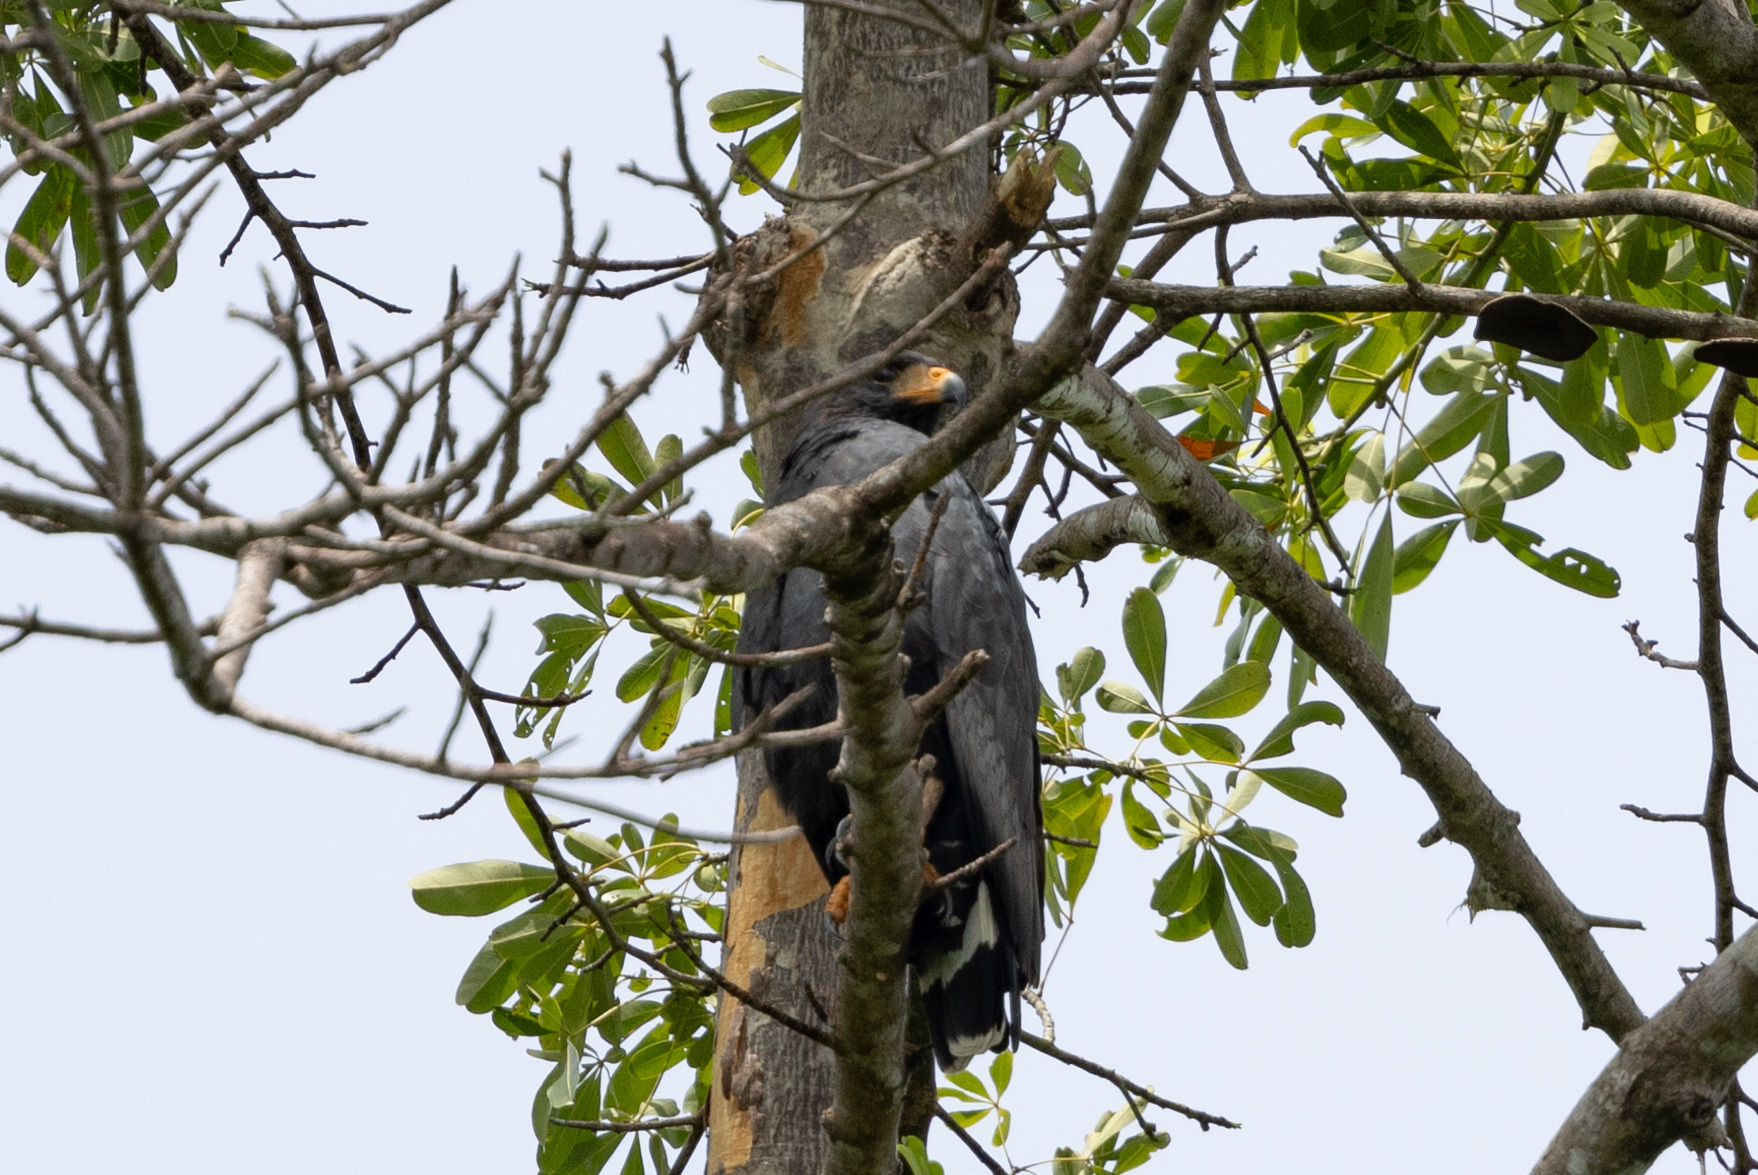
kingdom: Animalia
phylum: Chordata
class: Aves
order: Accipitriformes
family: Accipitridae
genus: Buteogallus
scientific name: Buteogallus anthracinus
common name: Common black hawk
